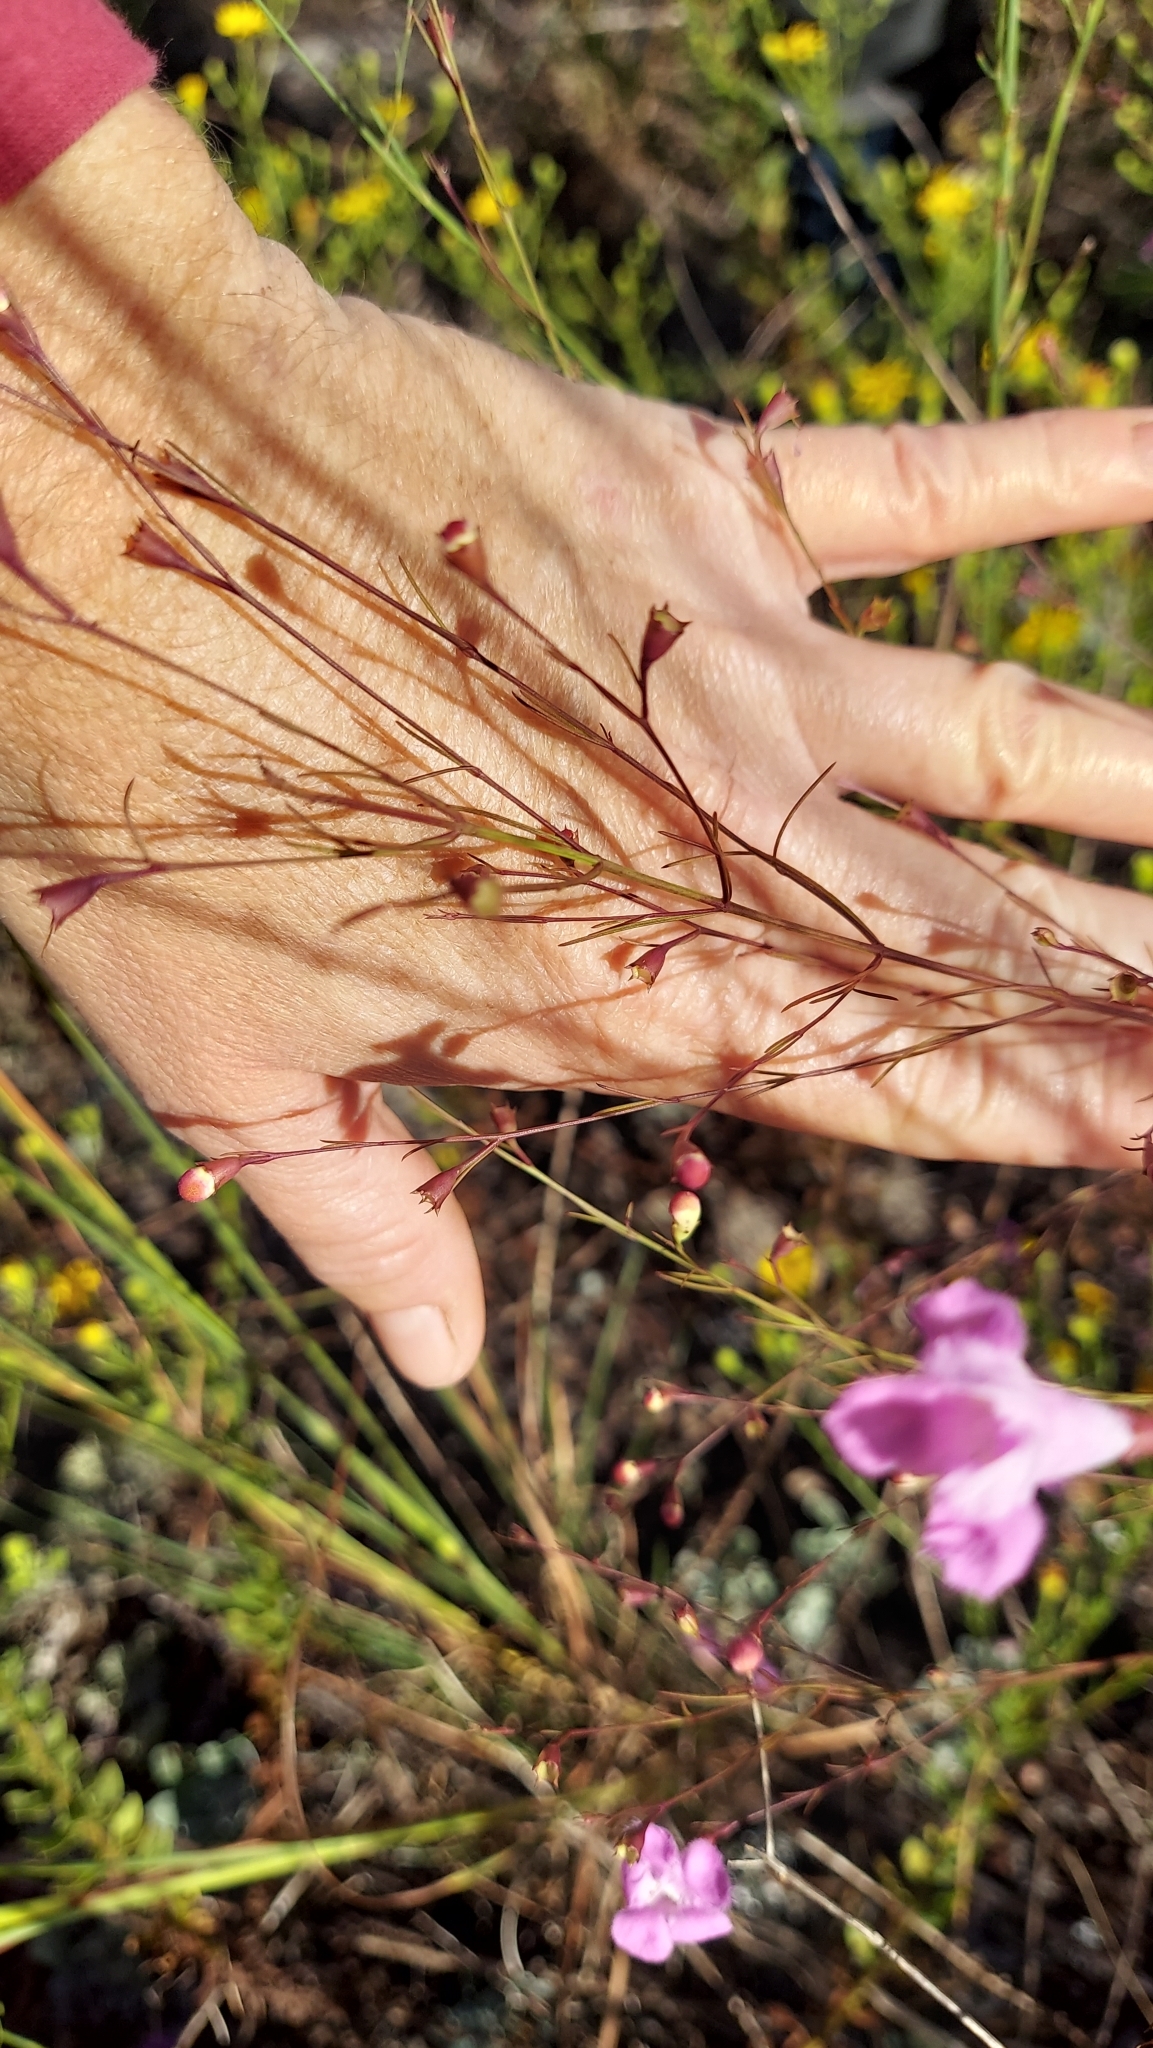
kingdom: Plantae
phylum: Tracheophyta
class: Magnoliopsida
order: Lamiales
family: Orobanchaceae
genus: Agalinis
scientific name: Agalinis plukenetii
